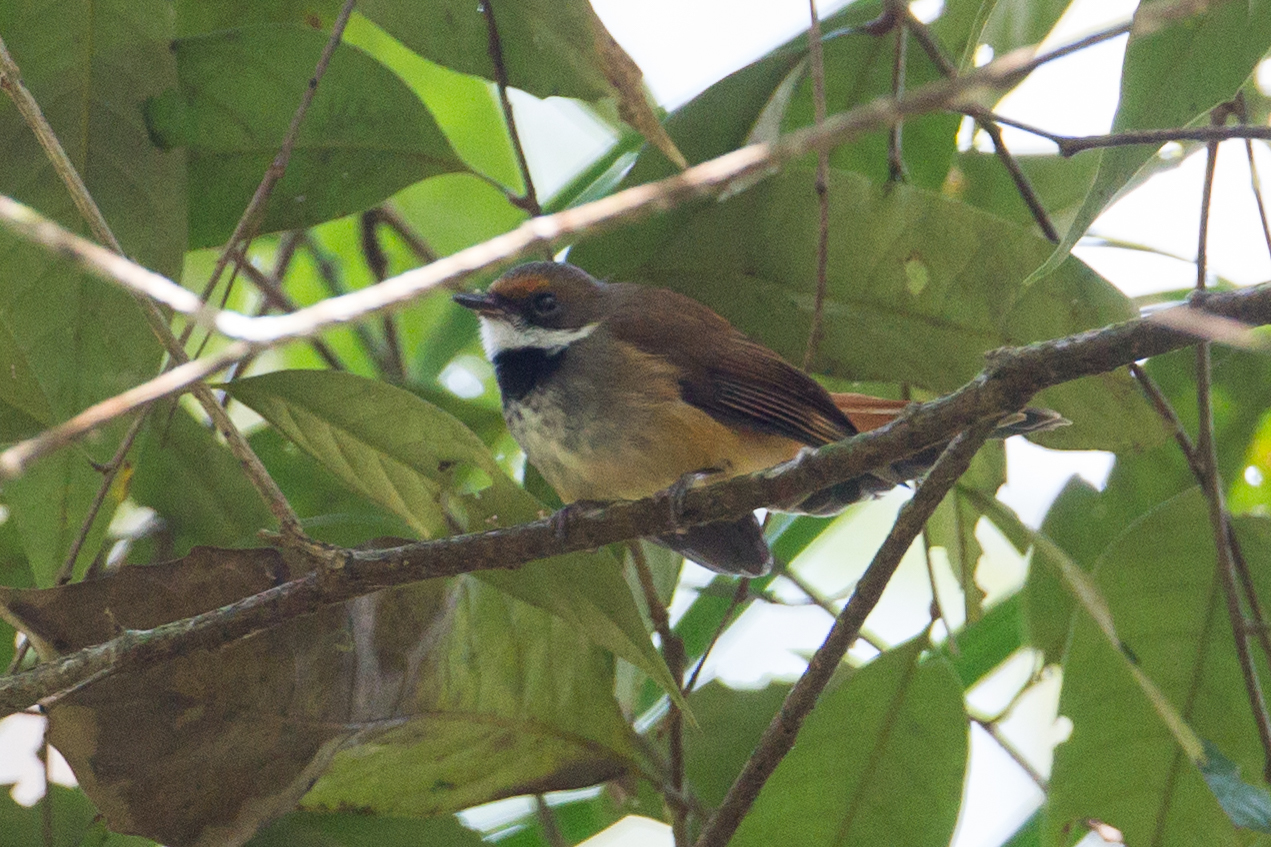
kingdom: Animalia
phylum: Chordata
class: Aves
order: Passeriformes
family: Rhipiduridae
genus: Rhipidura
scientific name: Rhipidura teysmanni
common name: Rusty-bellied fantail
